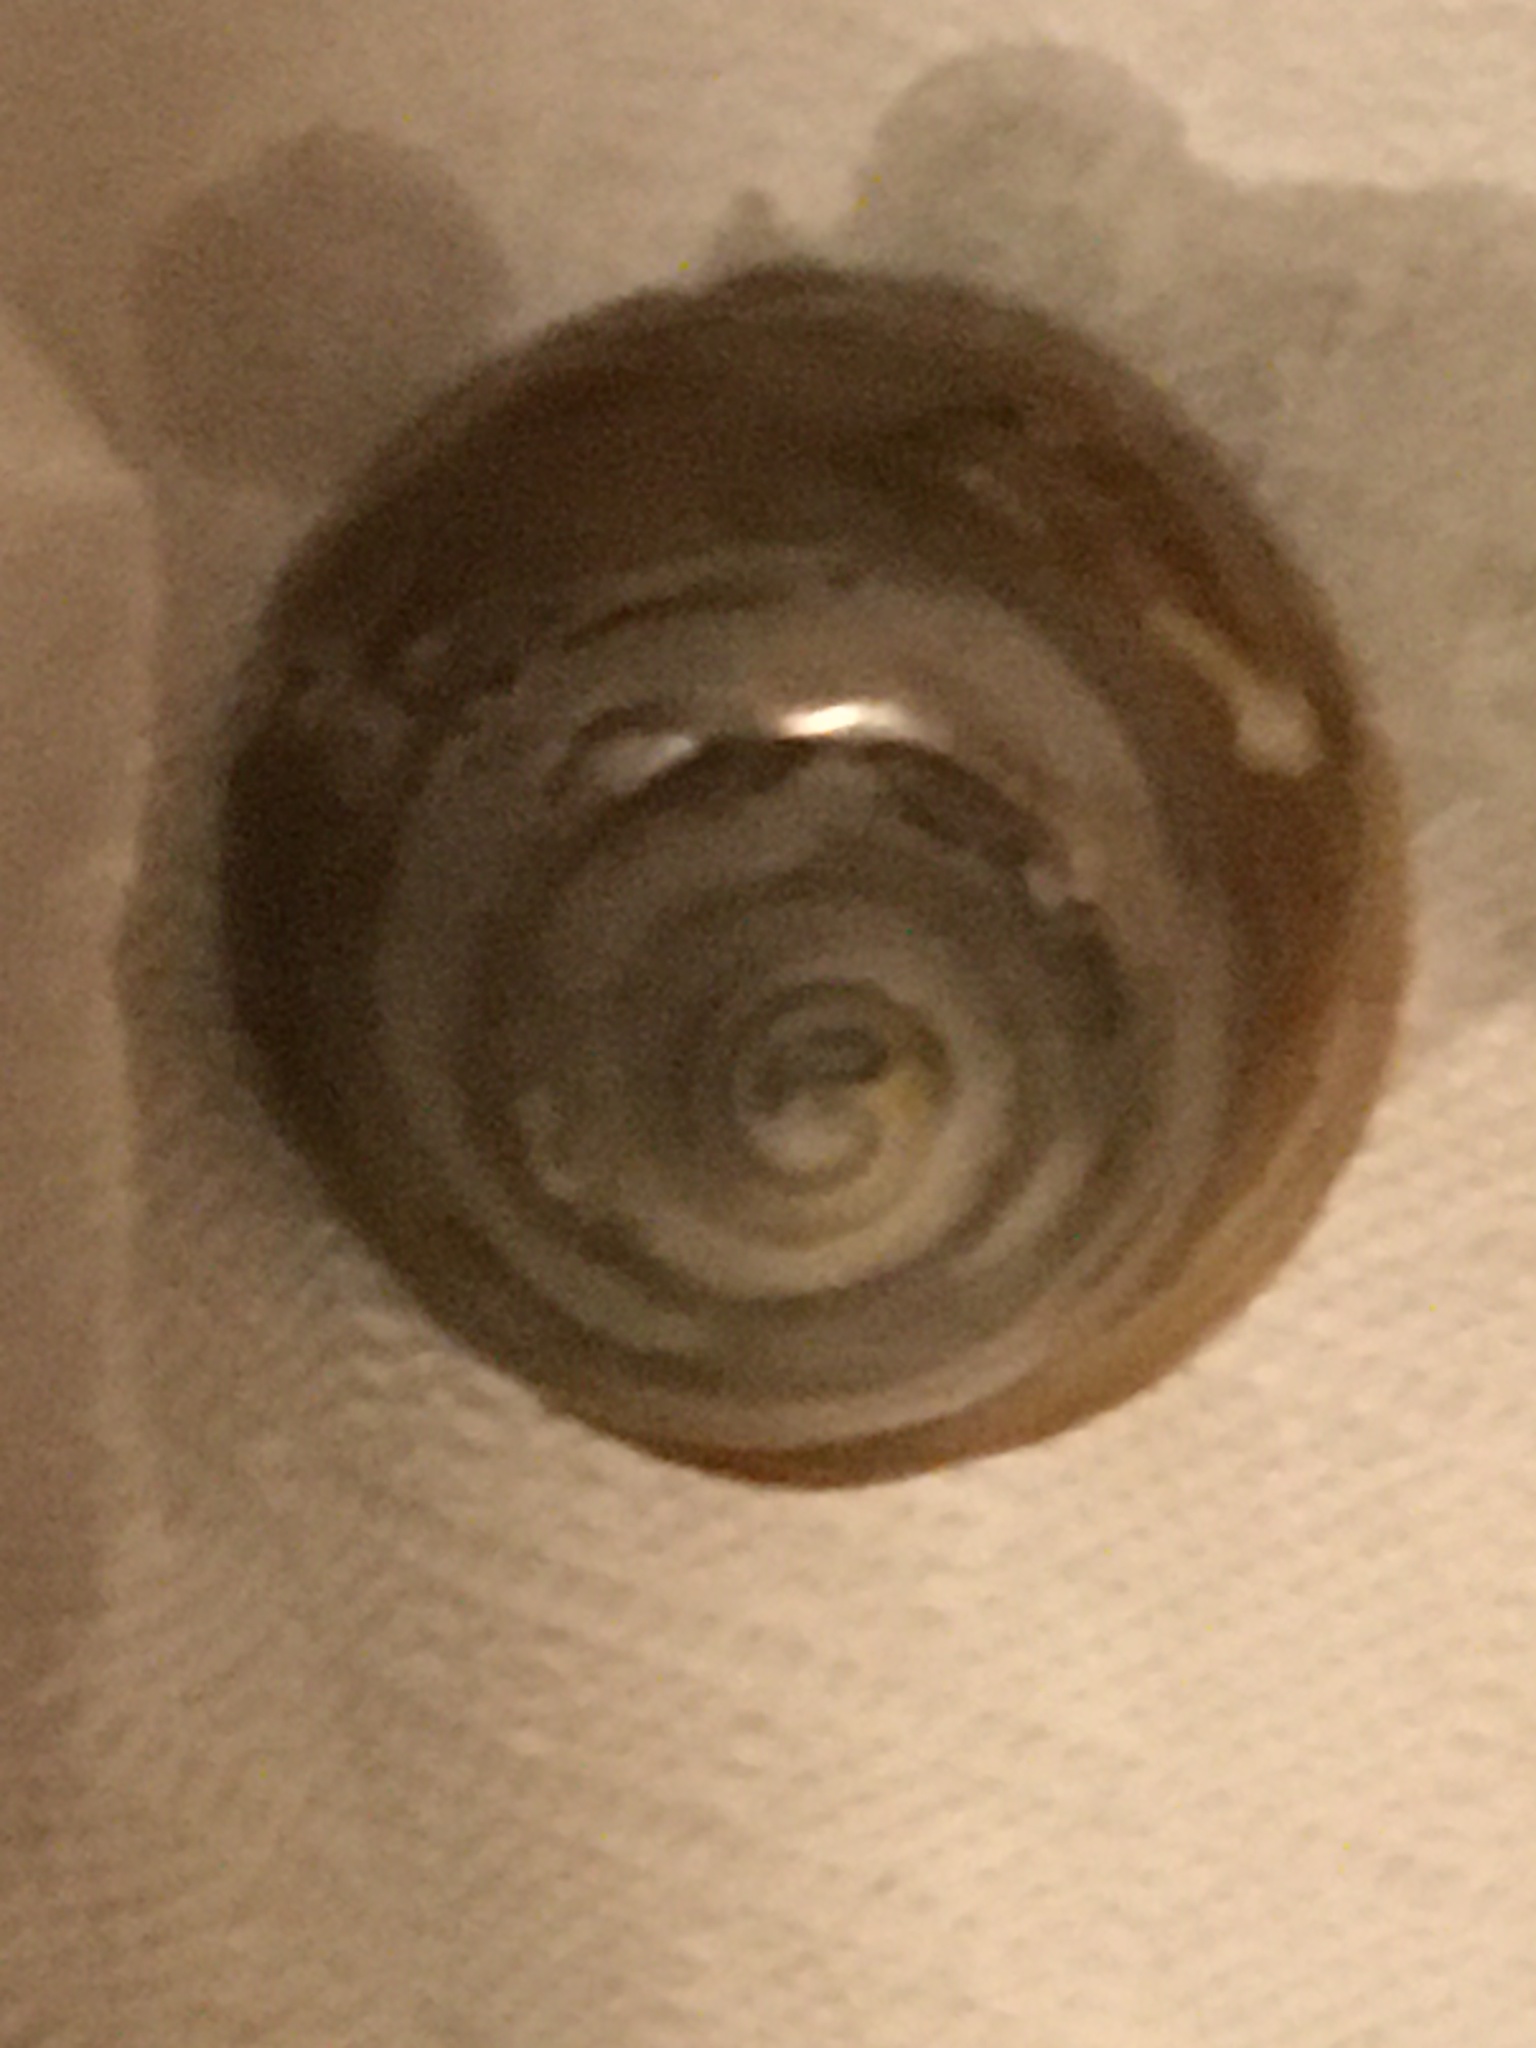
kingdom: Animalia
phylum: Mollusca
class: Gastropoda
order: Trochida
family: Tegulidae
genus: Tegula
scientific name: Tegula brunnea
